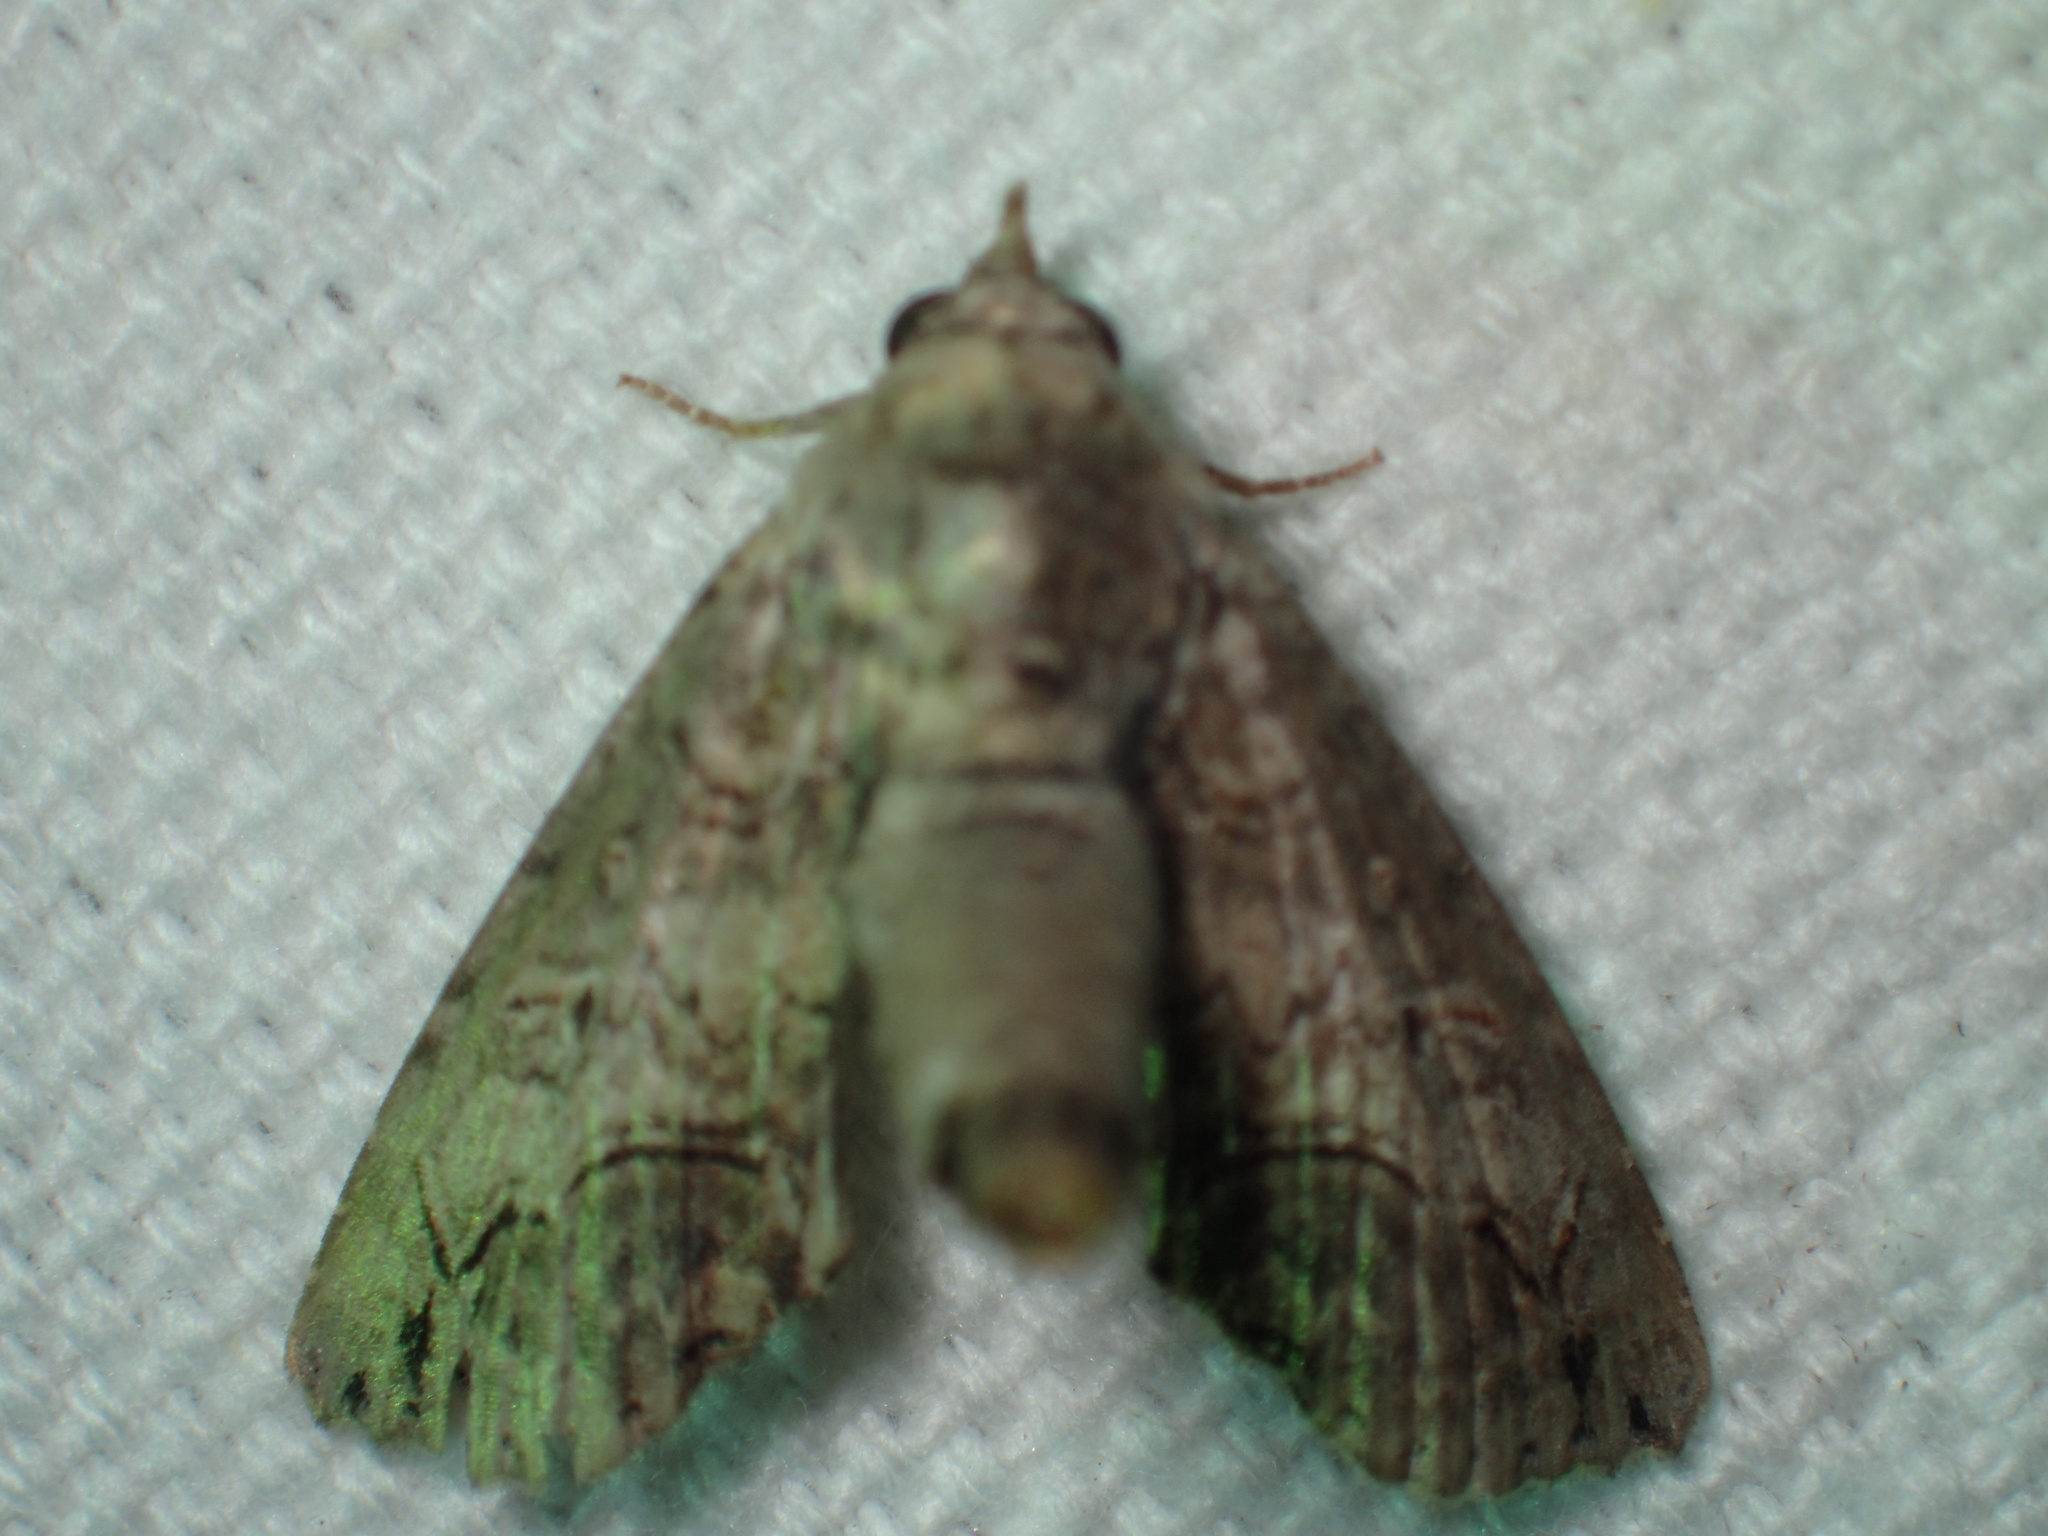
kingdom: Animalia
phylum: Arthropoda
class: Insecta
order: Lepidoptera
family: Euteliidae
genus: Paectes
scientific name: Paectes abrostoloides
